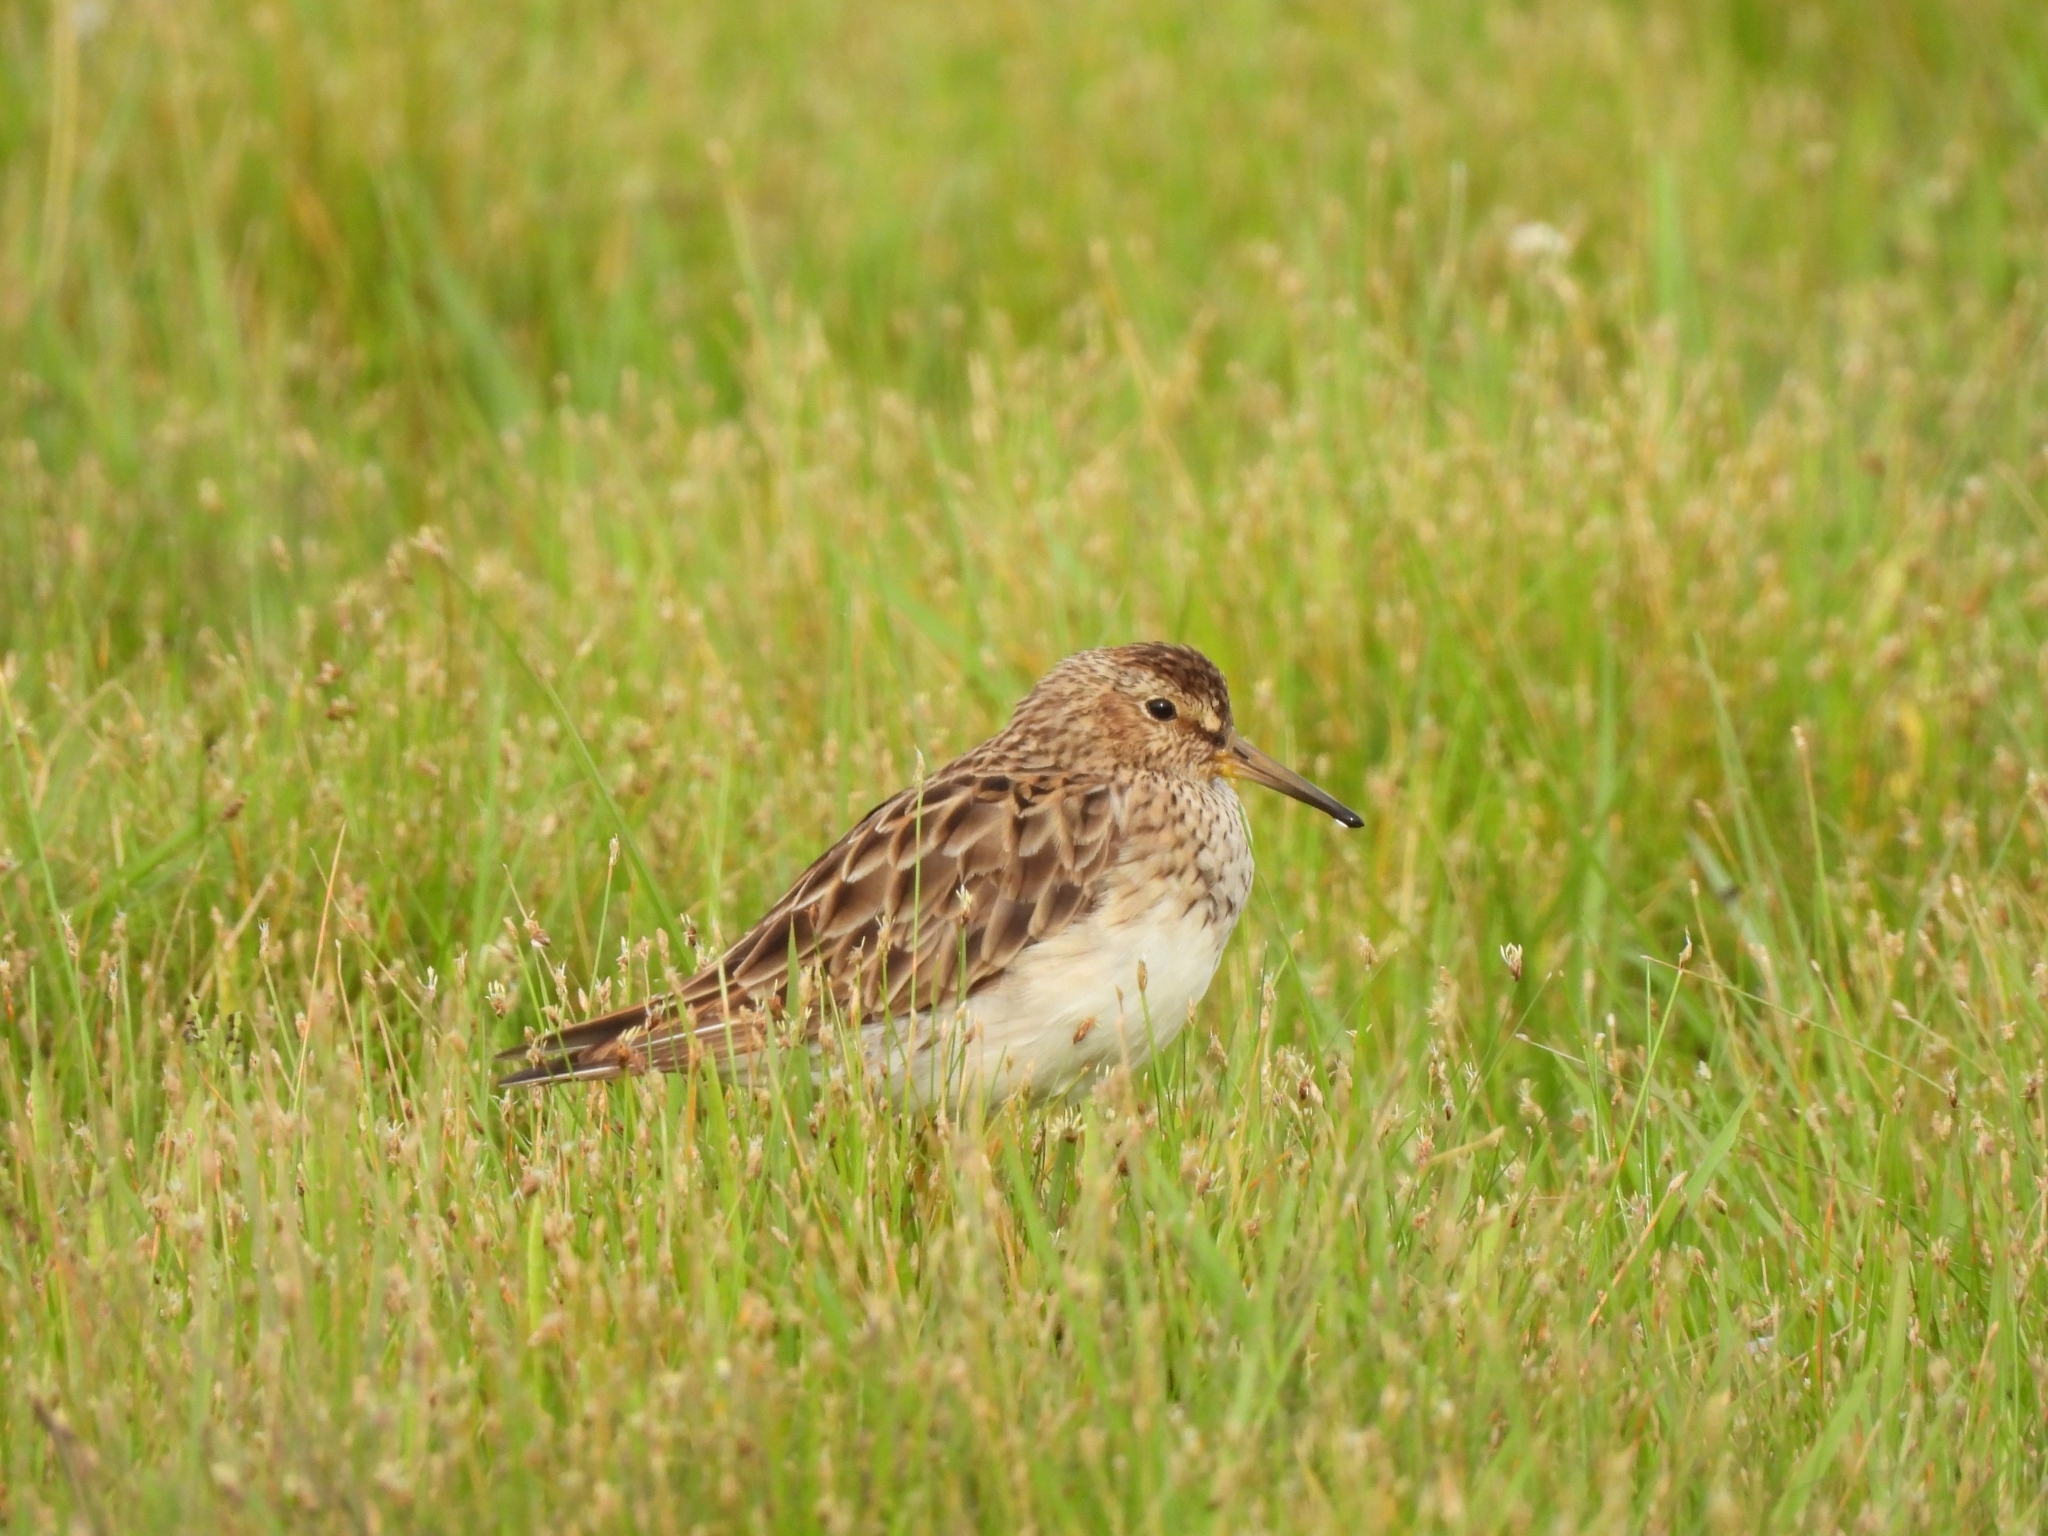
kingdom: Animalia
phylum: Chordata
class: Aves
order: Charadriiformes
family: Scolopacidae
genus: Calidris
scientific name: Calidris melanotos
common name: Pectoral sandpiper
